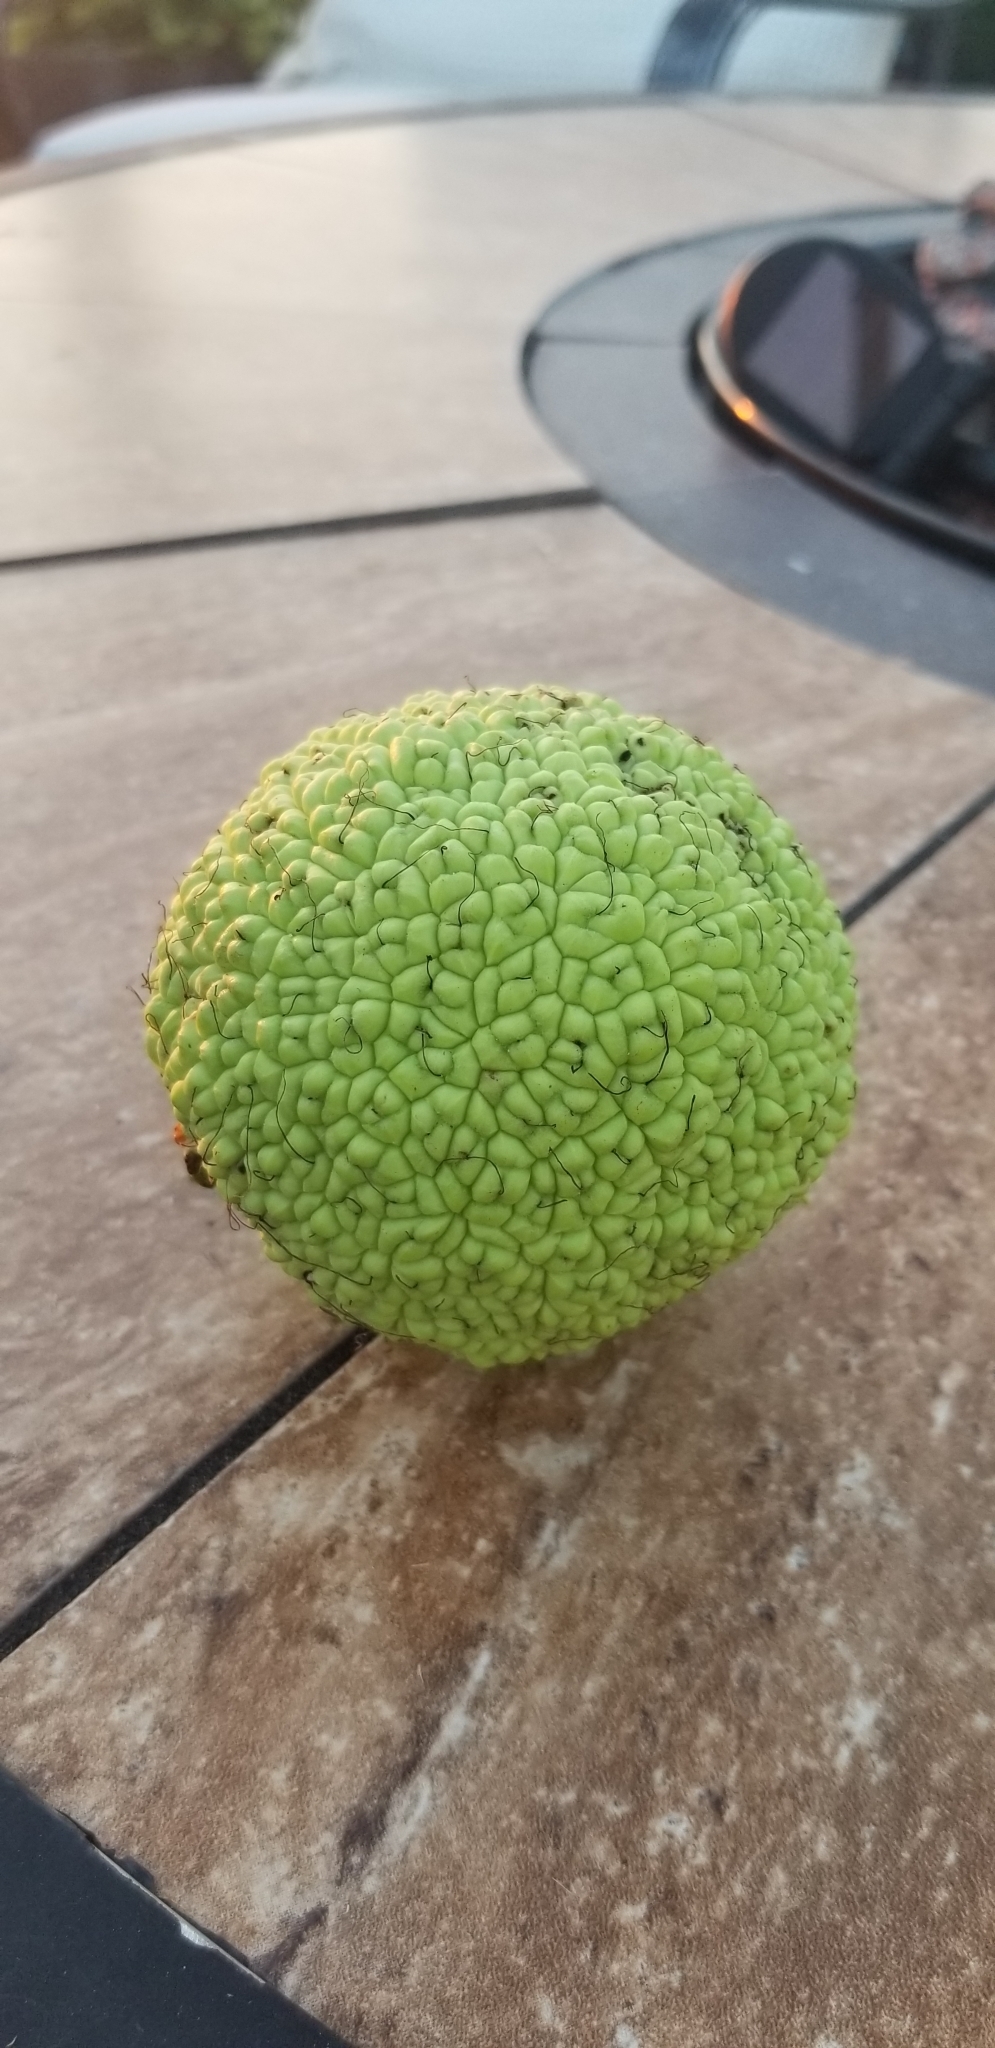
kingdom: Plantae
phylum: Tracheophyta
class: Magnoliopsida
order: Rosales
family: Moraceae
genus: Maclura
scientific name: Maclura pomifera
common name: Osage-orange
